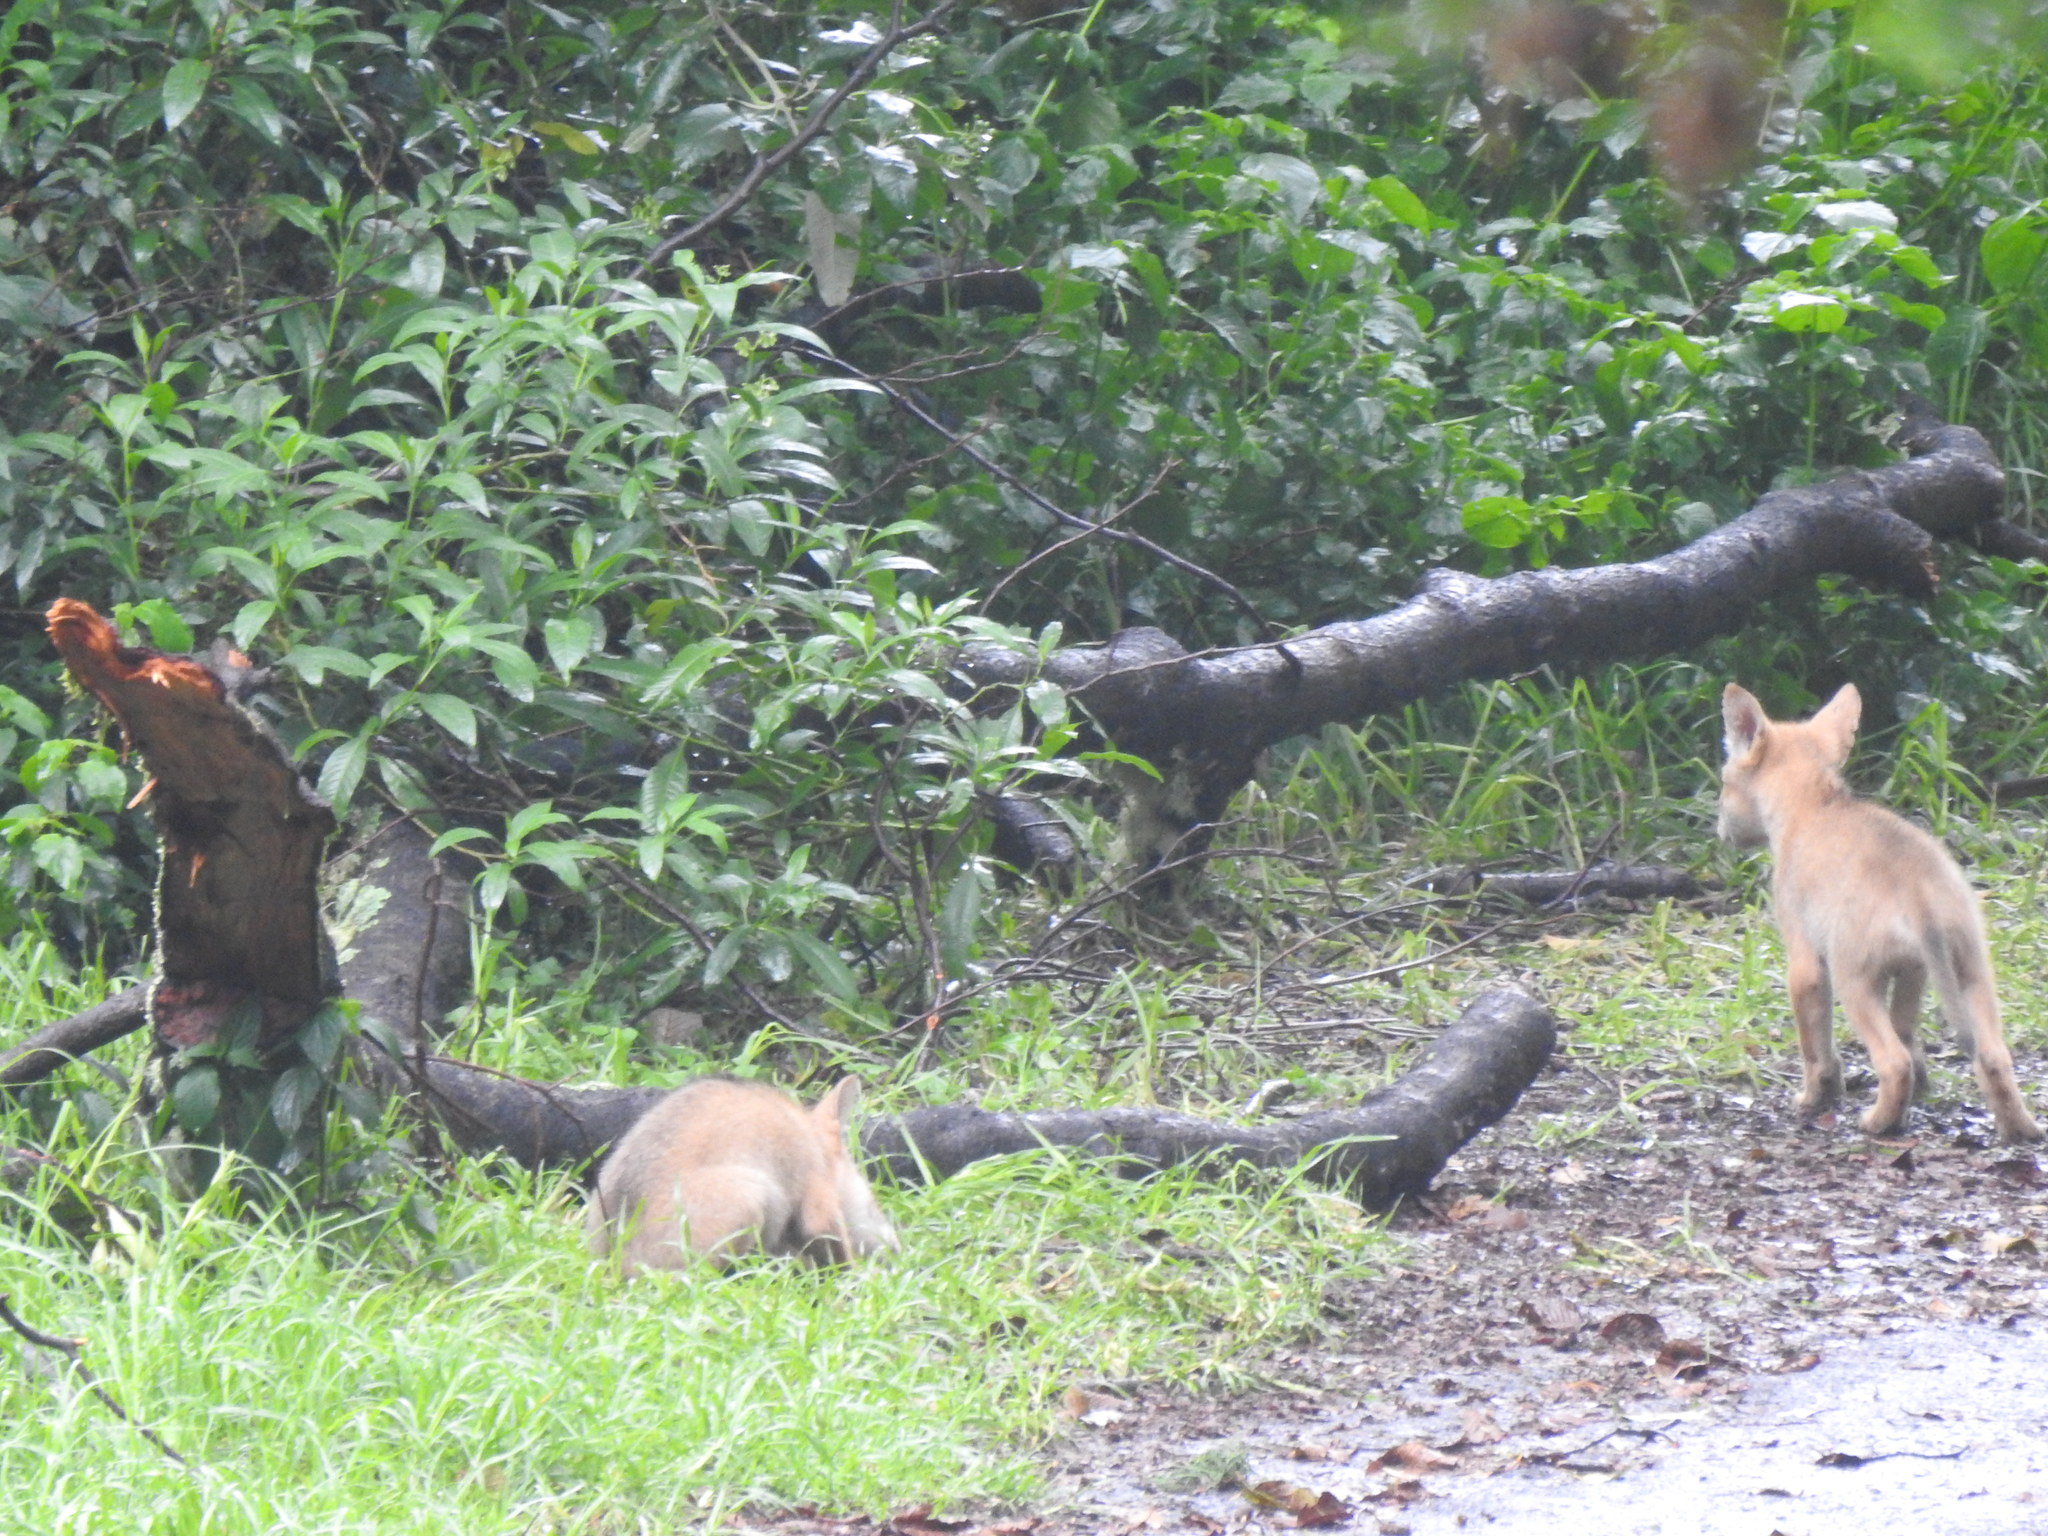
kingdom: Animalia
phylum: Chordata
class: Mammalia
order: Carnivora
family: Canidae
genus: Canis
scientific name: Canis latrans
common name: Coyote
